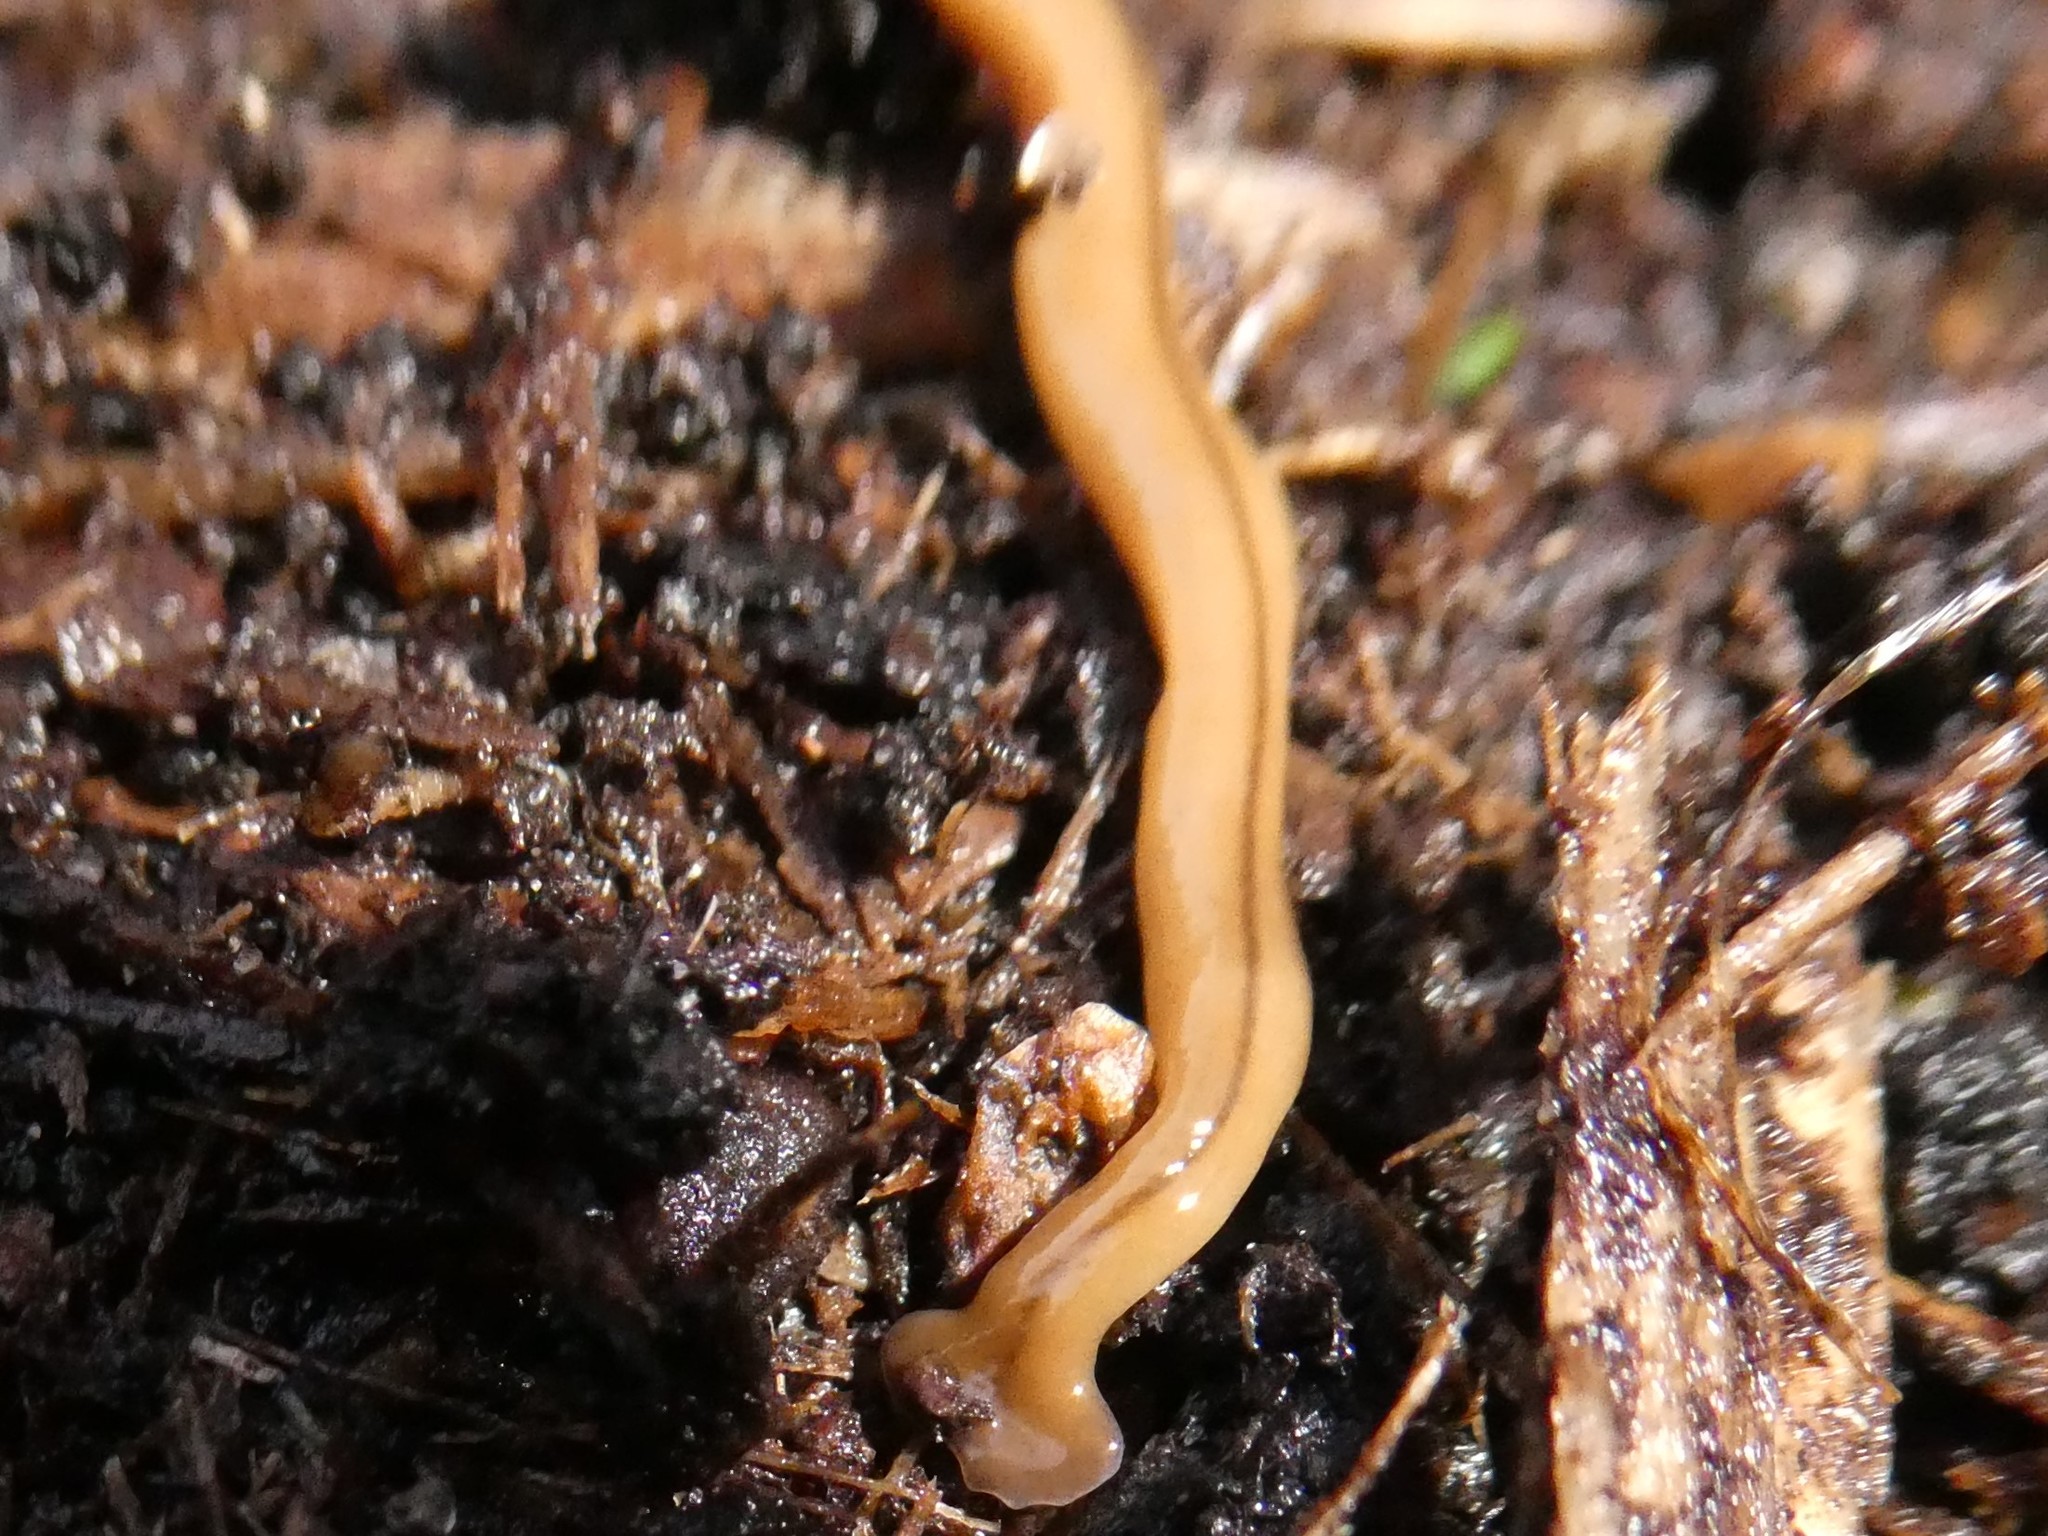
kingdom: Animalia
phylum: Platyhelminthes
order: Tricladida
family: Geoplanidae
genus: Bipalium
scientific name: Bipalium adventitium
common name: Land planarian
